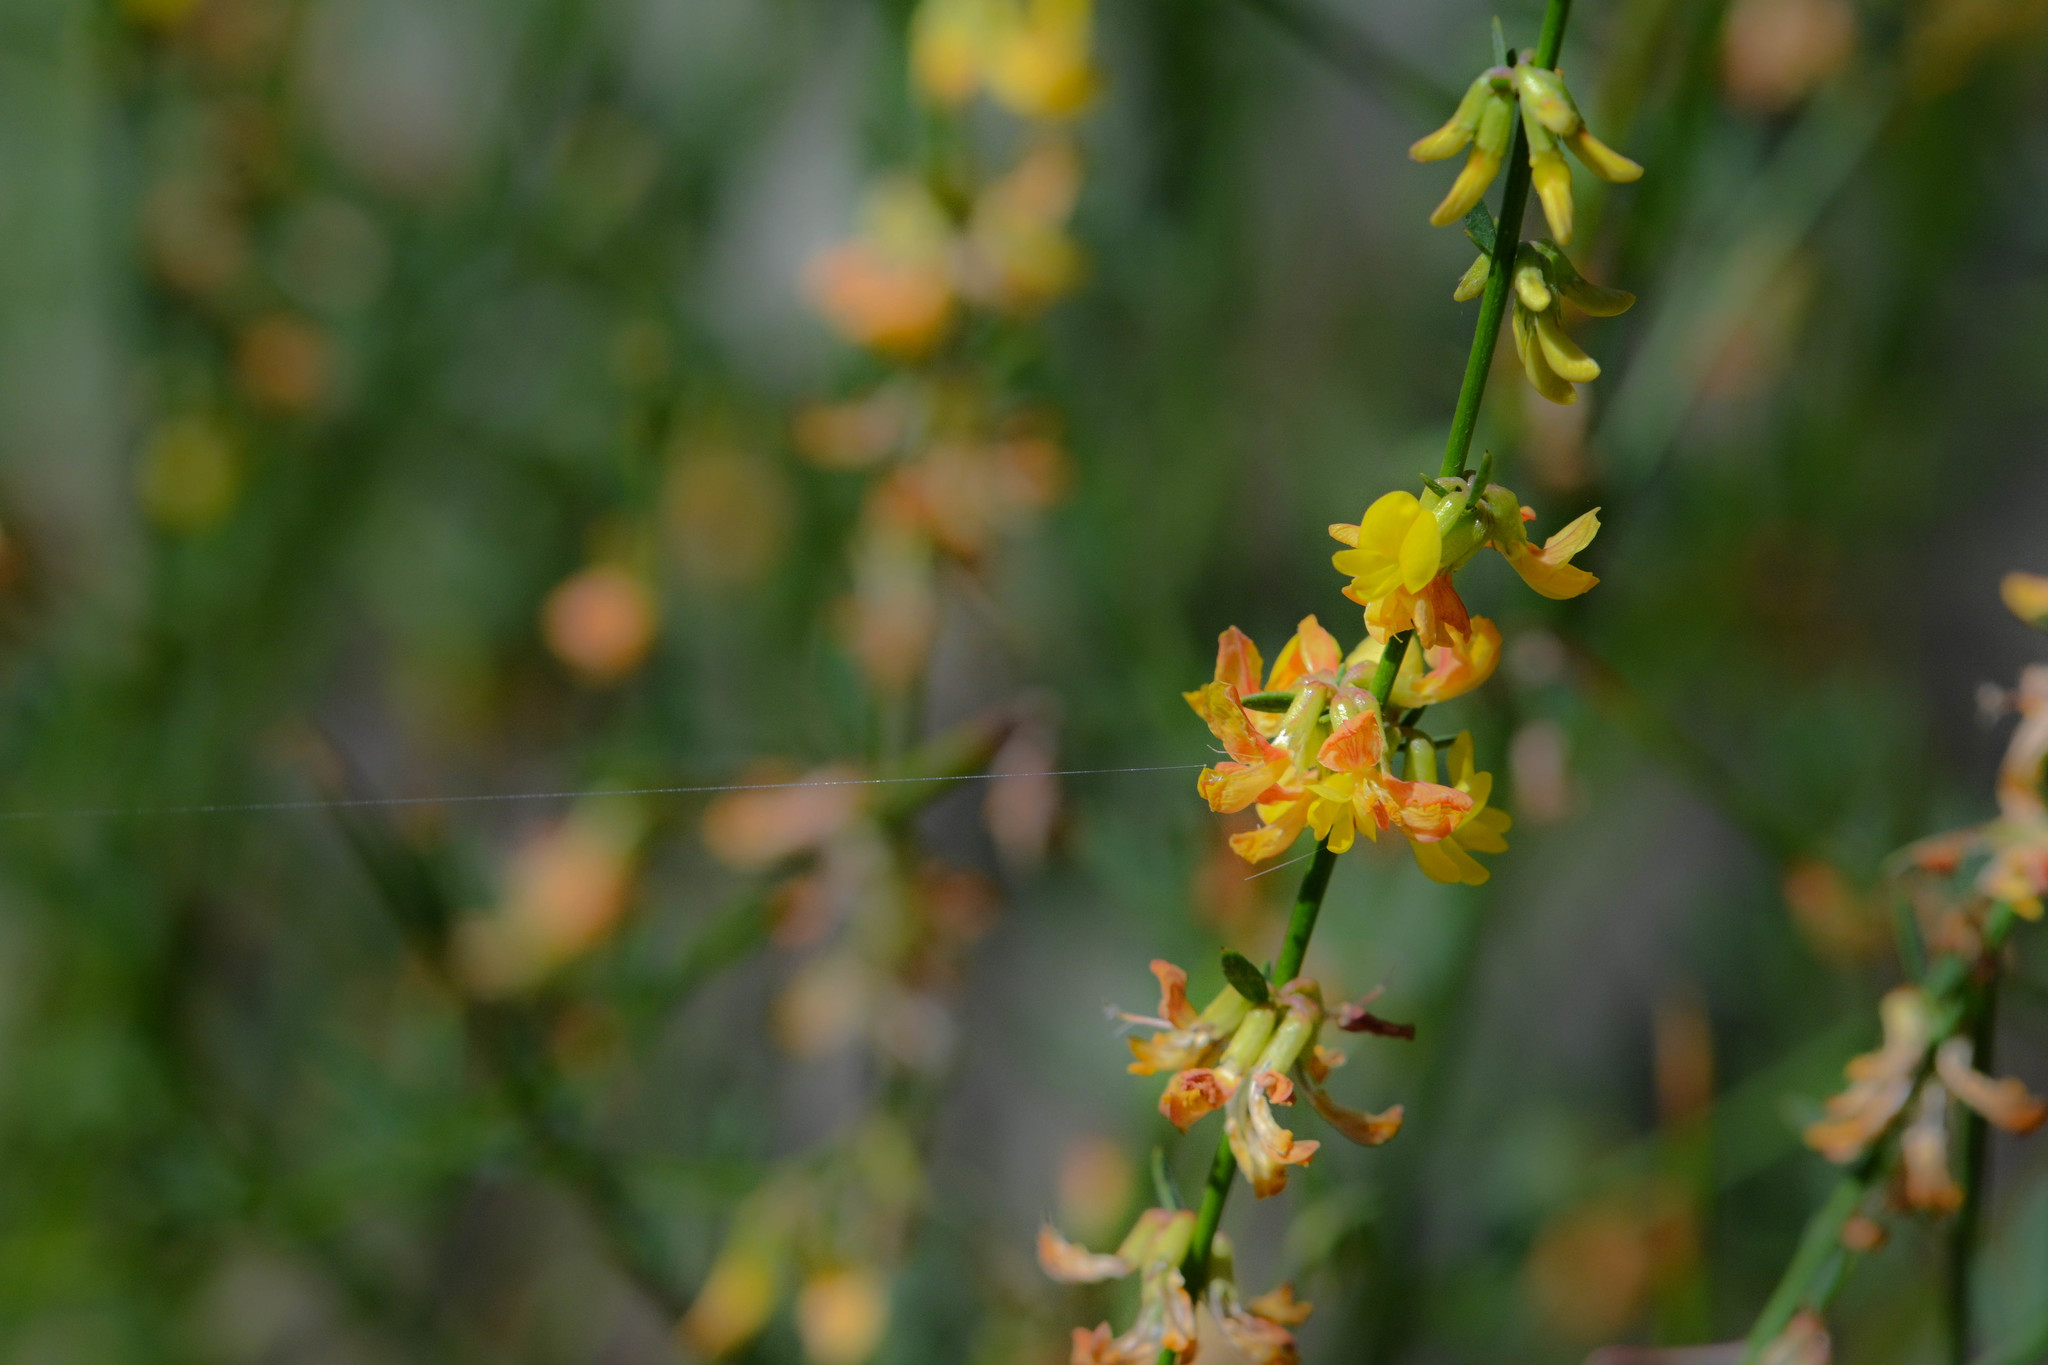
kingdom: Plantae
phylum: Tracheophyta
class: Magnoliopsida
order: Fabales
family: Fabaceae
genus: Acmispon
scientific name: Acmispon glaber
